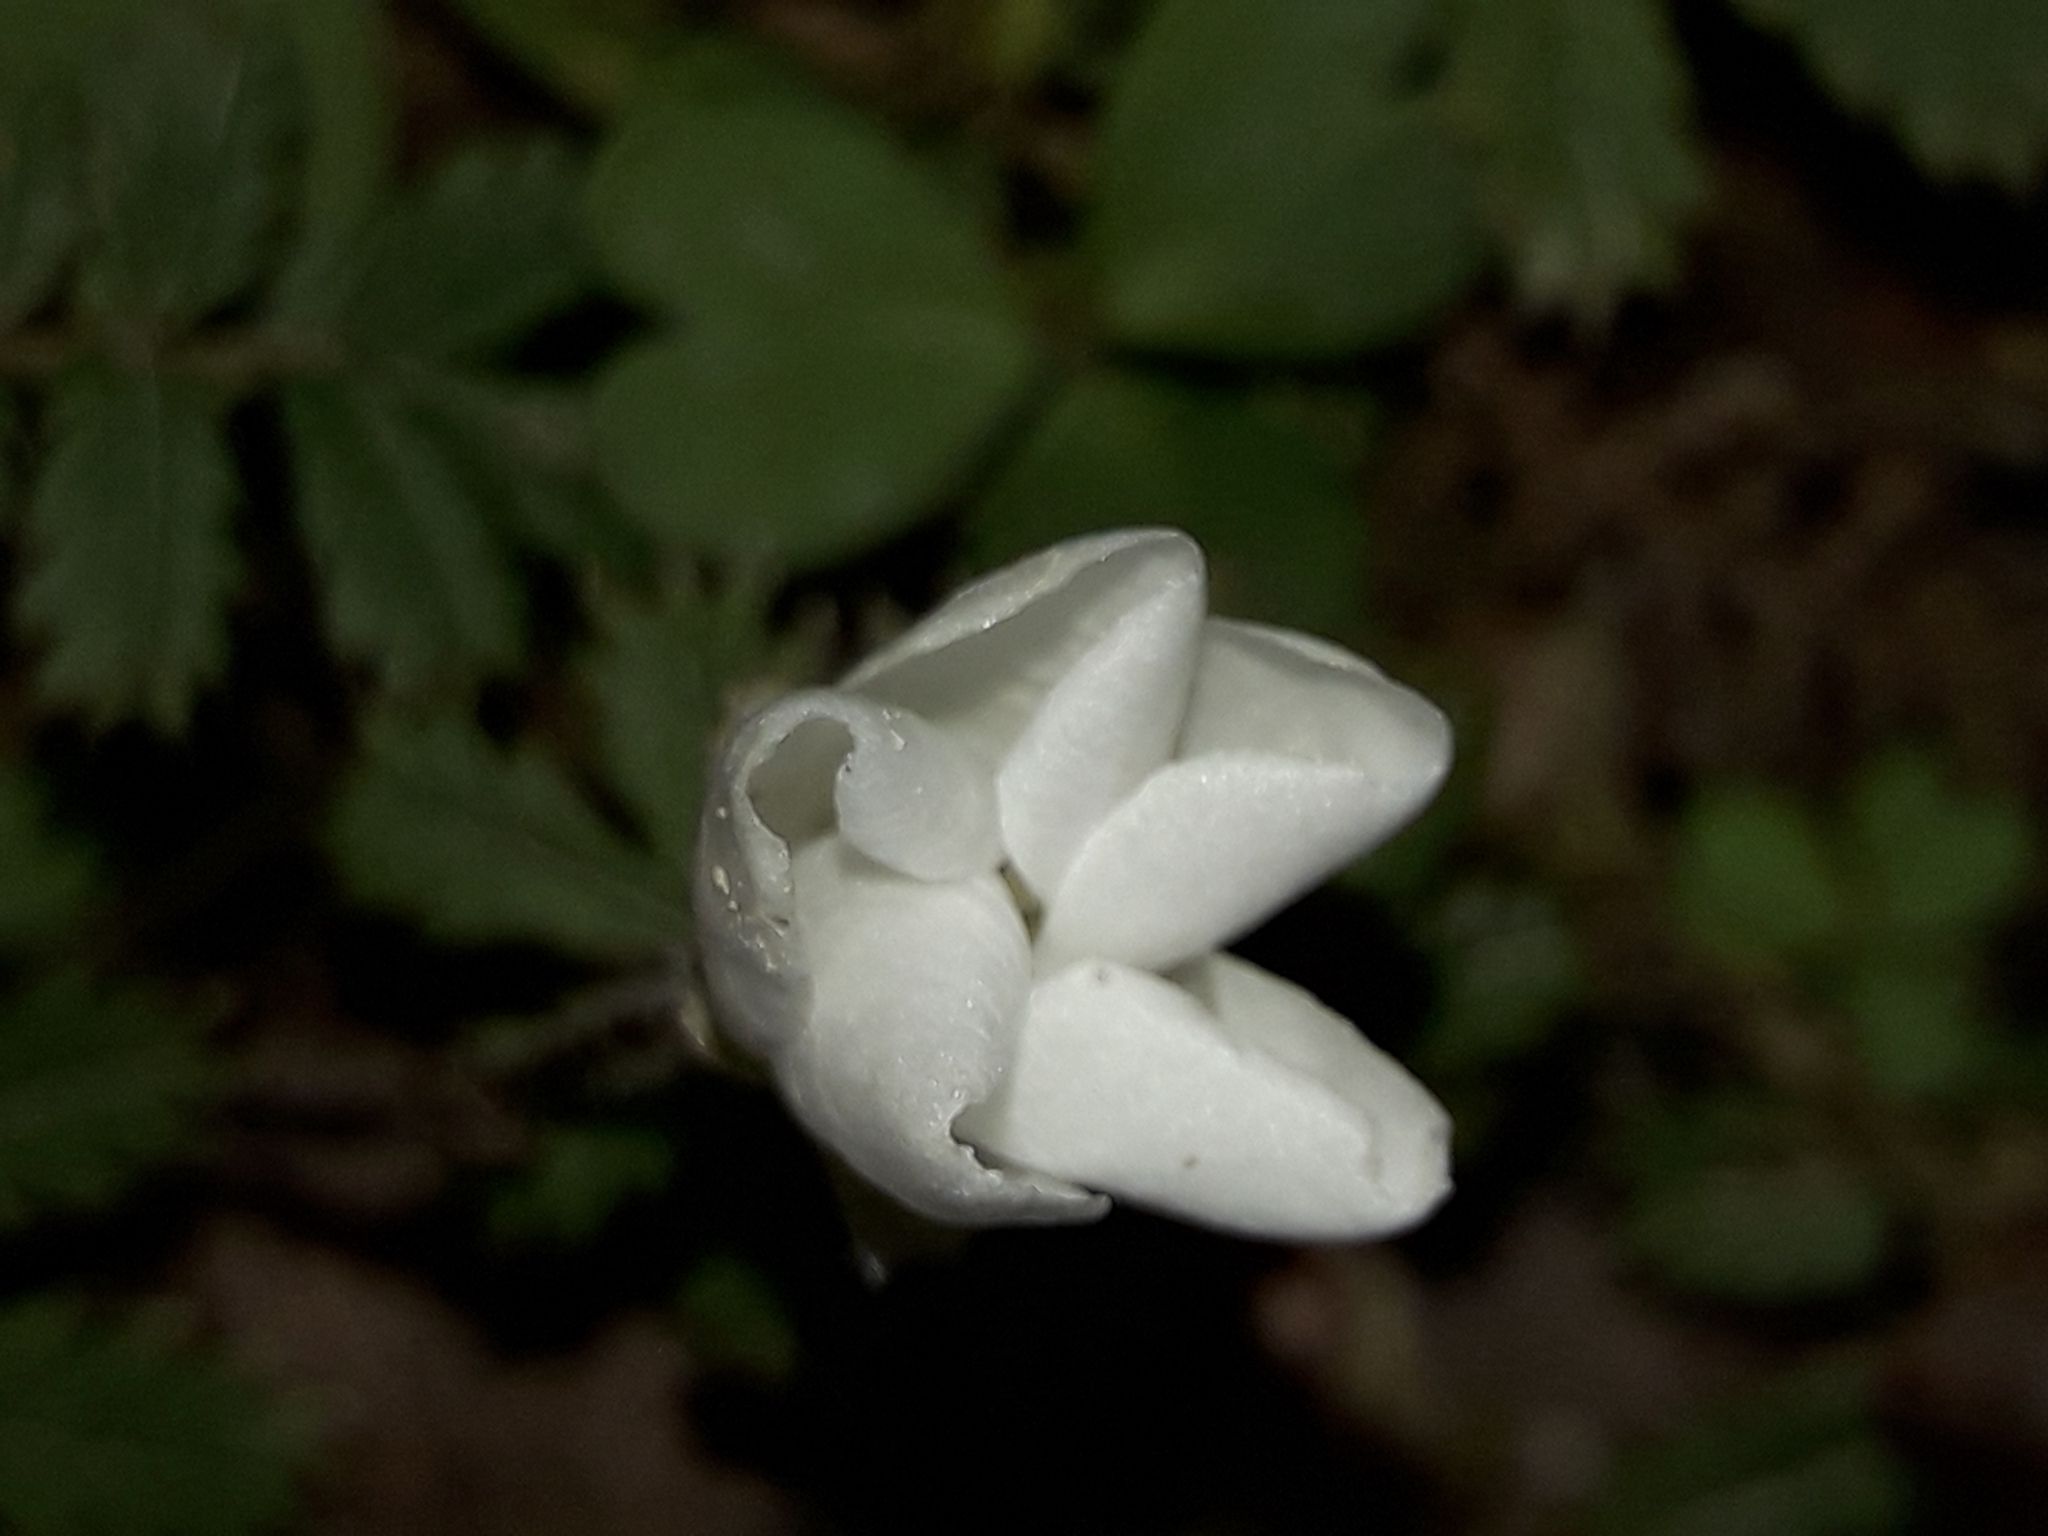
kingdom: Plantae
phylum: Tracheophyta
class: Magnoliopsida
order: Oxalidales
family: Oxalidaceae
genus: Oxalis
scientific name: Oxalis magellanica
